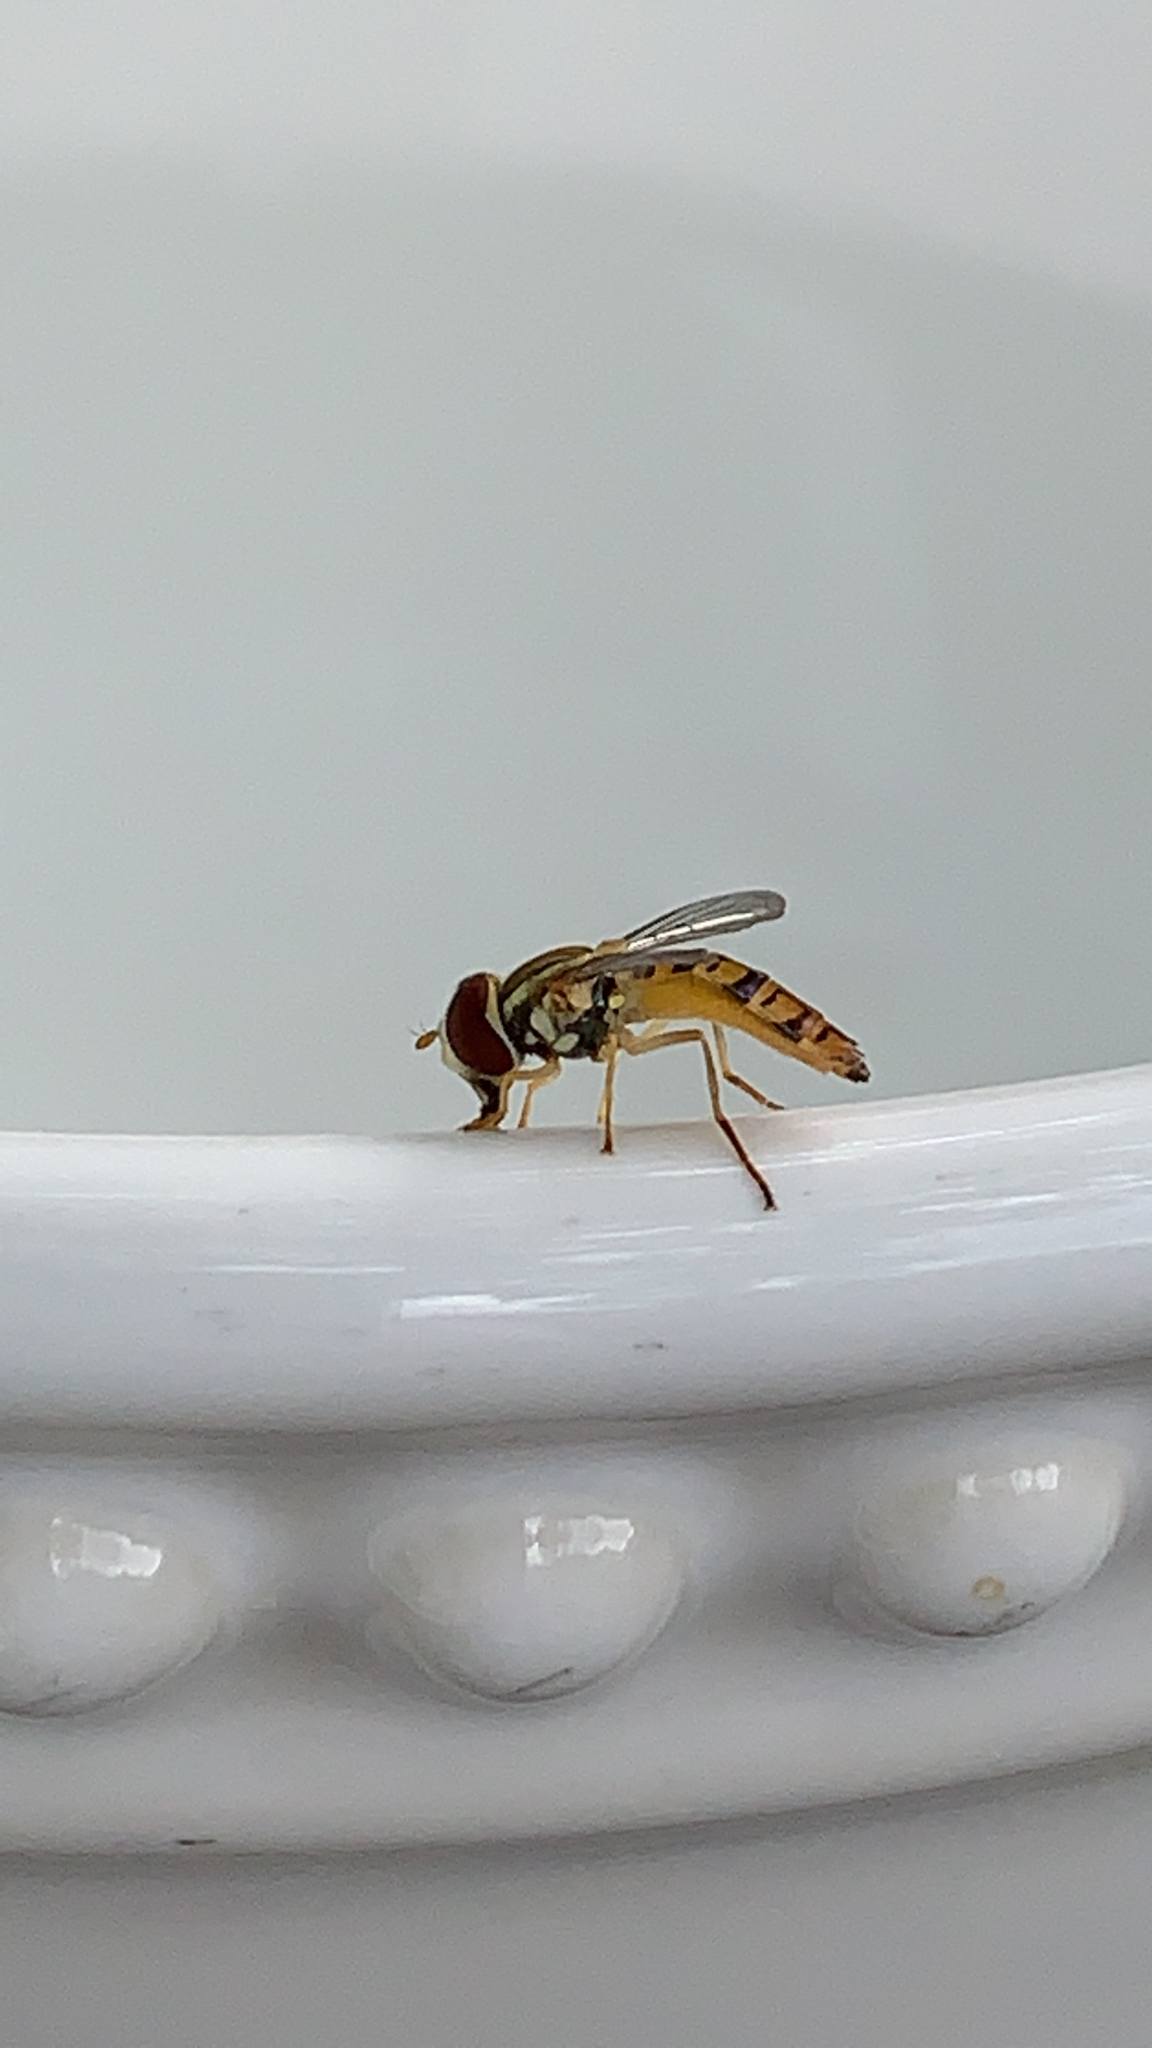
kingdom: Animalia
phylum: Arthropoda
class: Insecta
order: Diptera
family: Syrphidae
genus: Toxomerus
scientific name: Toxomerus politus
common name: Maize calligrapher
